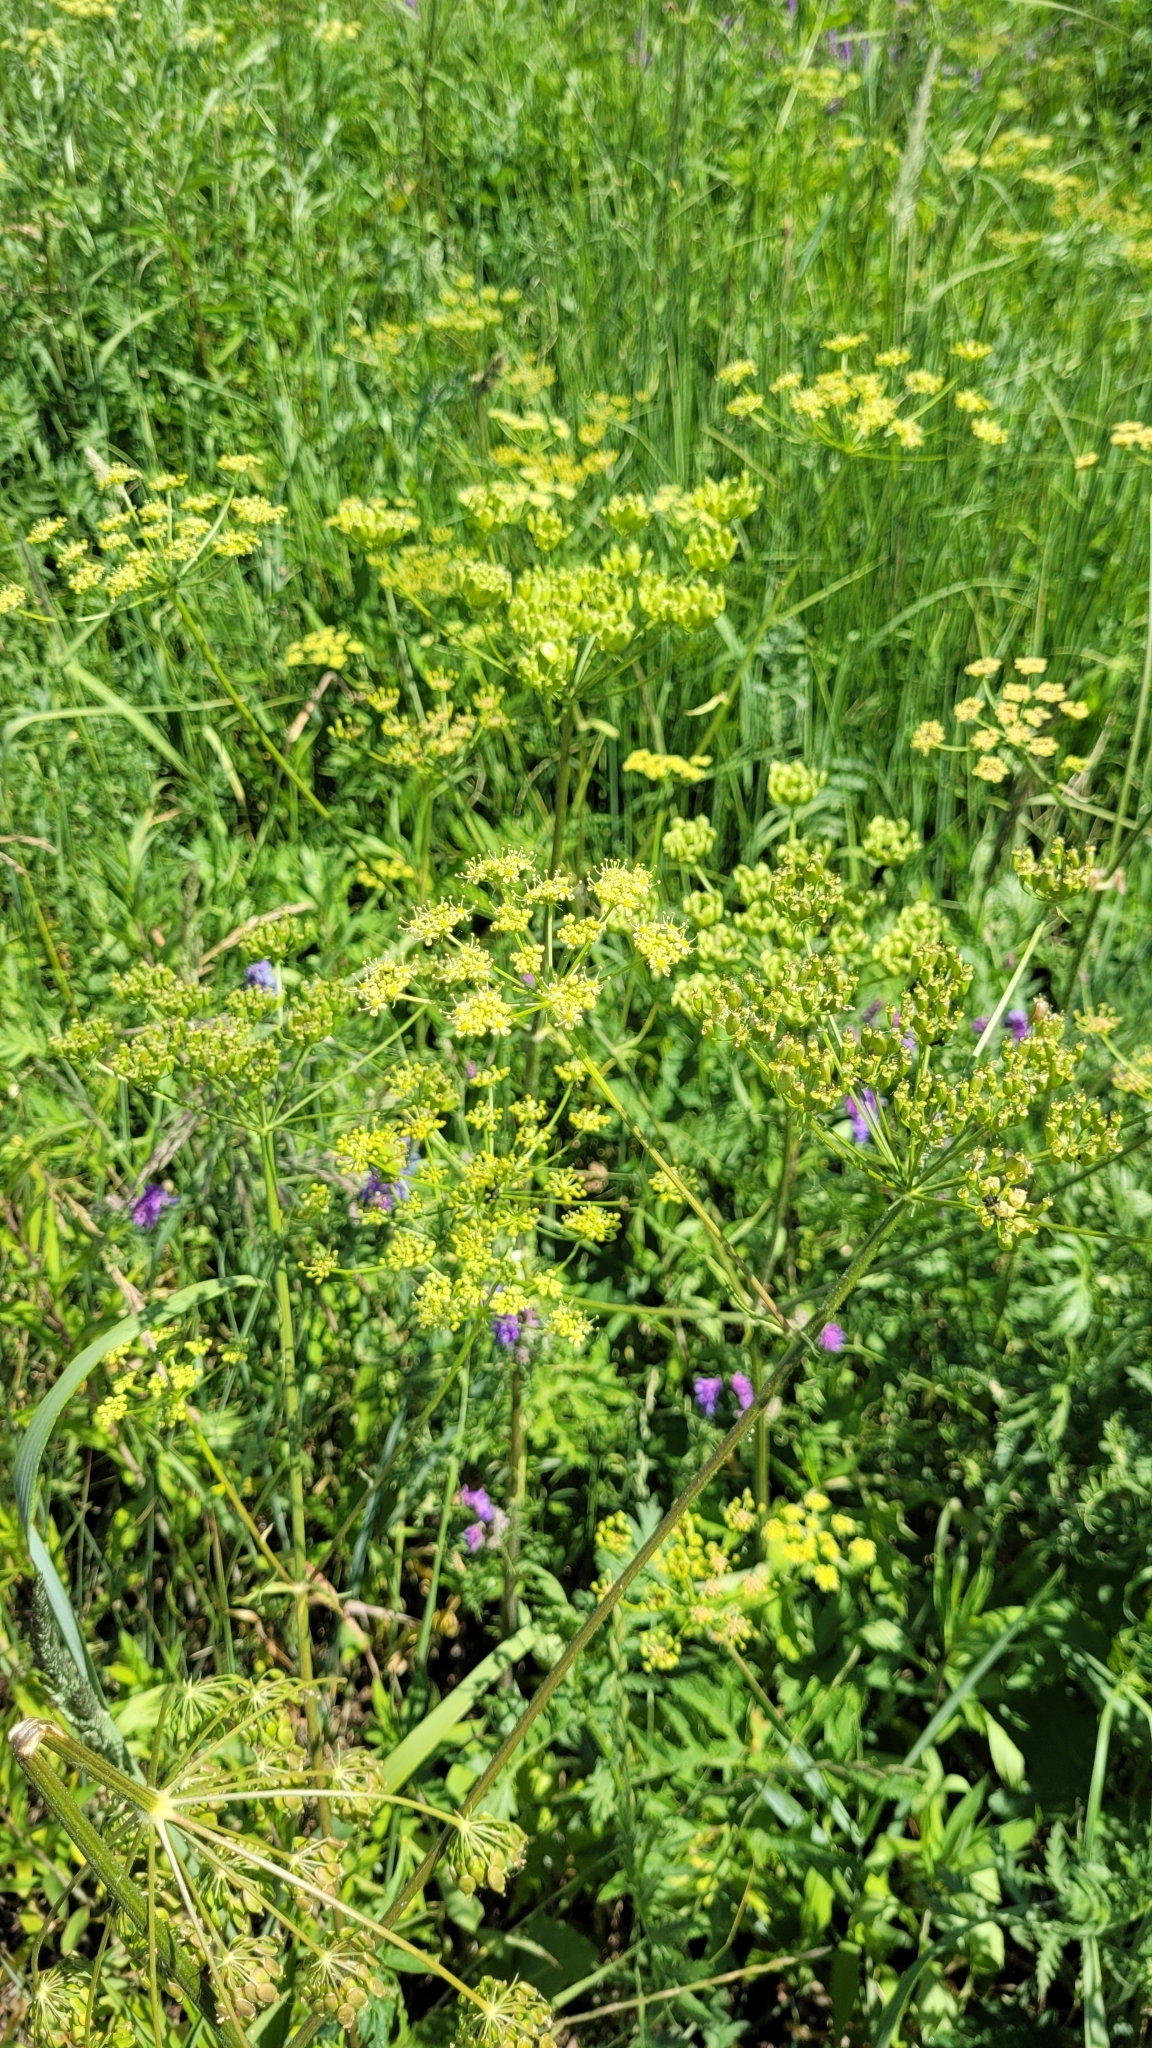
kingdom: Plantae
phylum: Tracheophyta
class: Magnoliopsida
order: Apiales
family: Apiaceae
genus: Heracleum
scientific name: Heracleum sphondylium
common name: Hogweed
